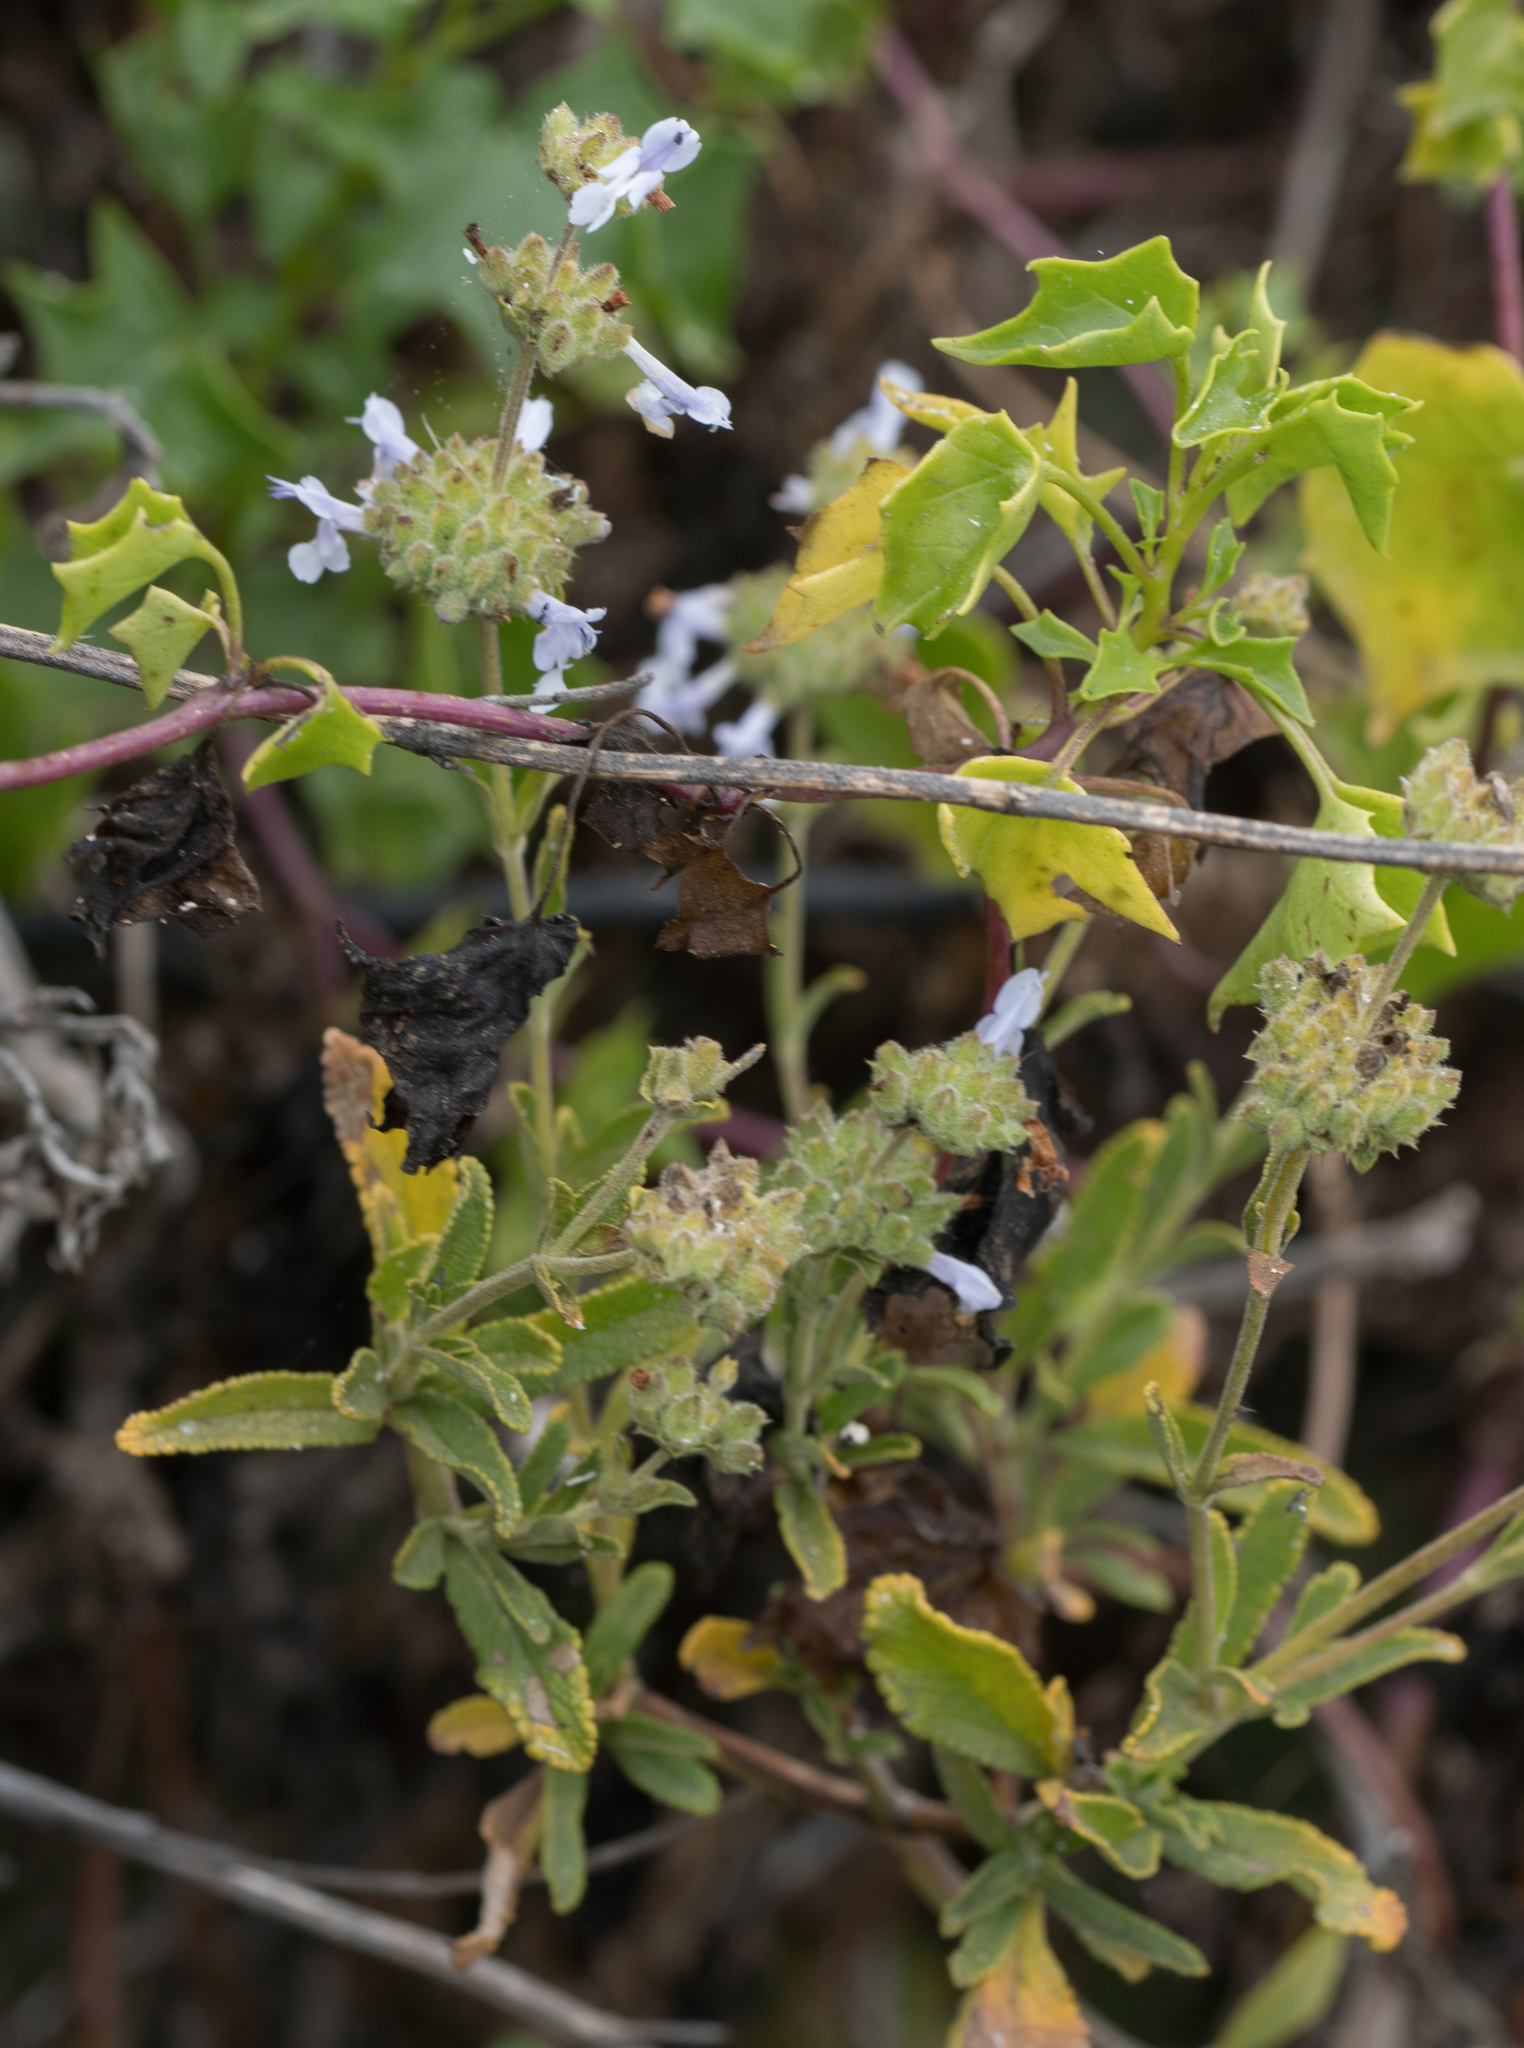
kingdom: Plantae
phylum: Tracheophyta
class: Magnoliopsida
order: Lamiales
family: Lamiaceae
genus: Salvia
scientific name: Salvia mellifera
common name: Black sage
